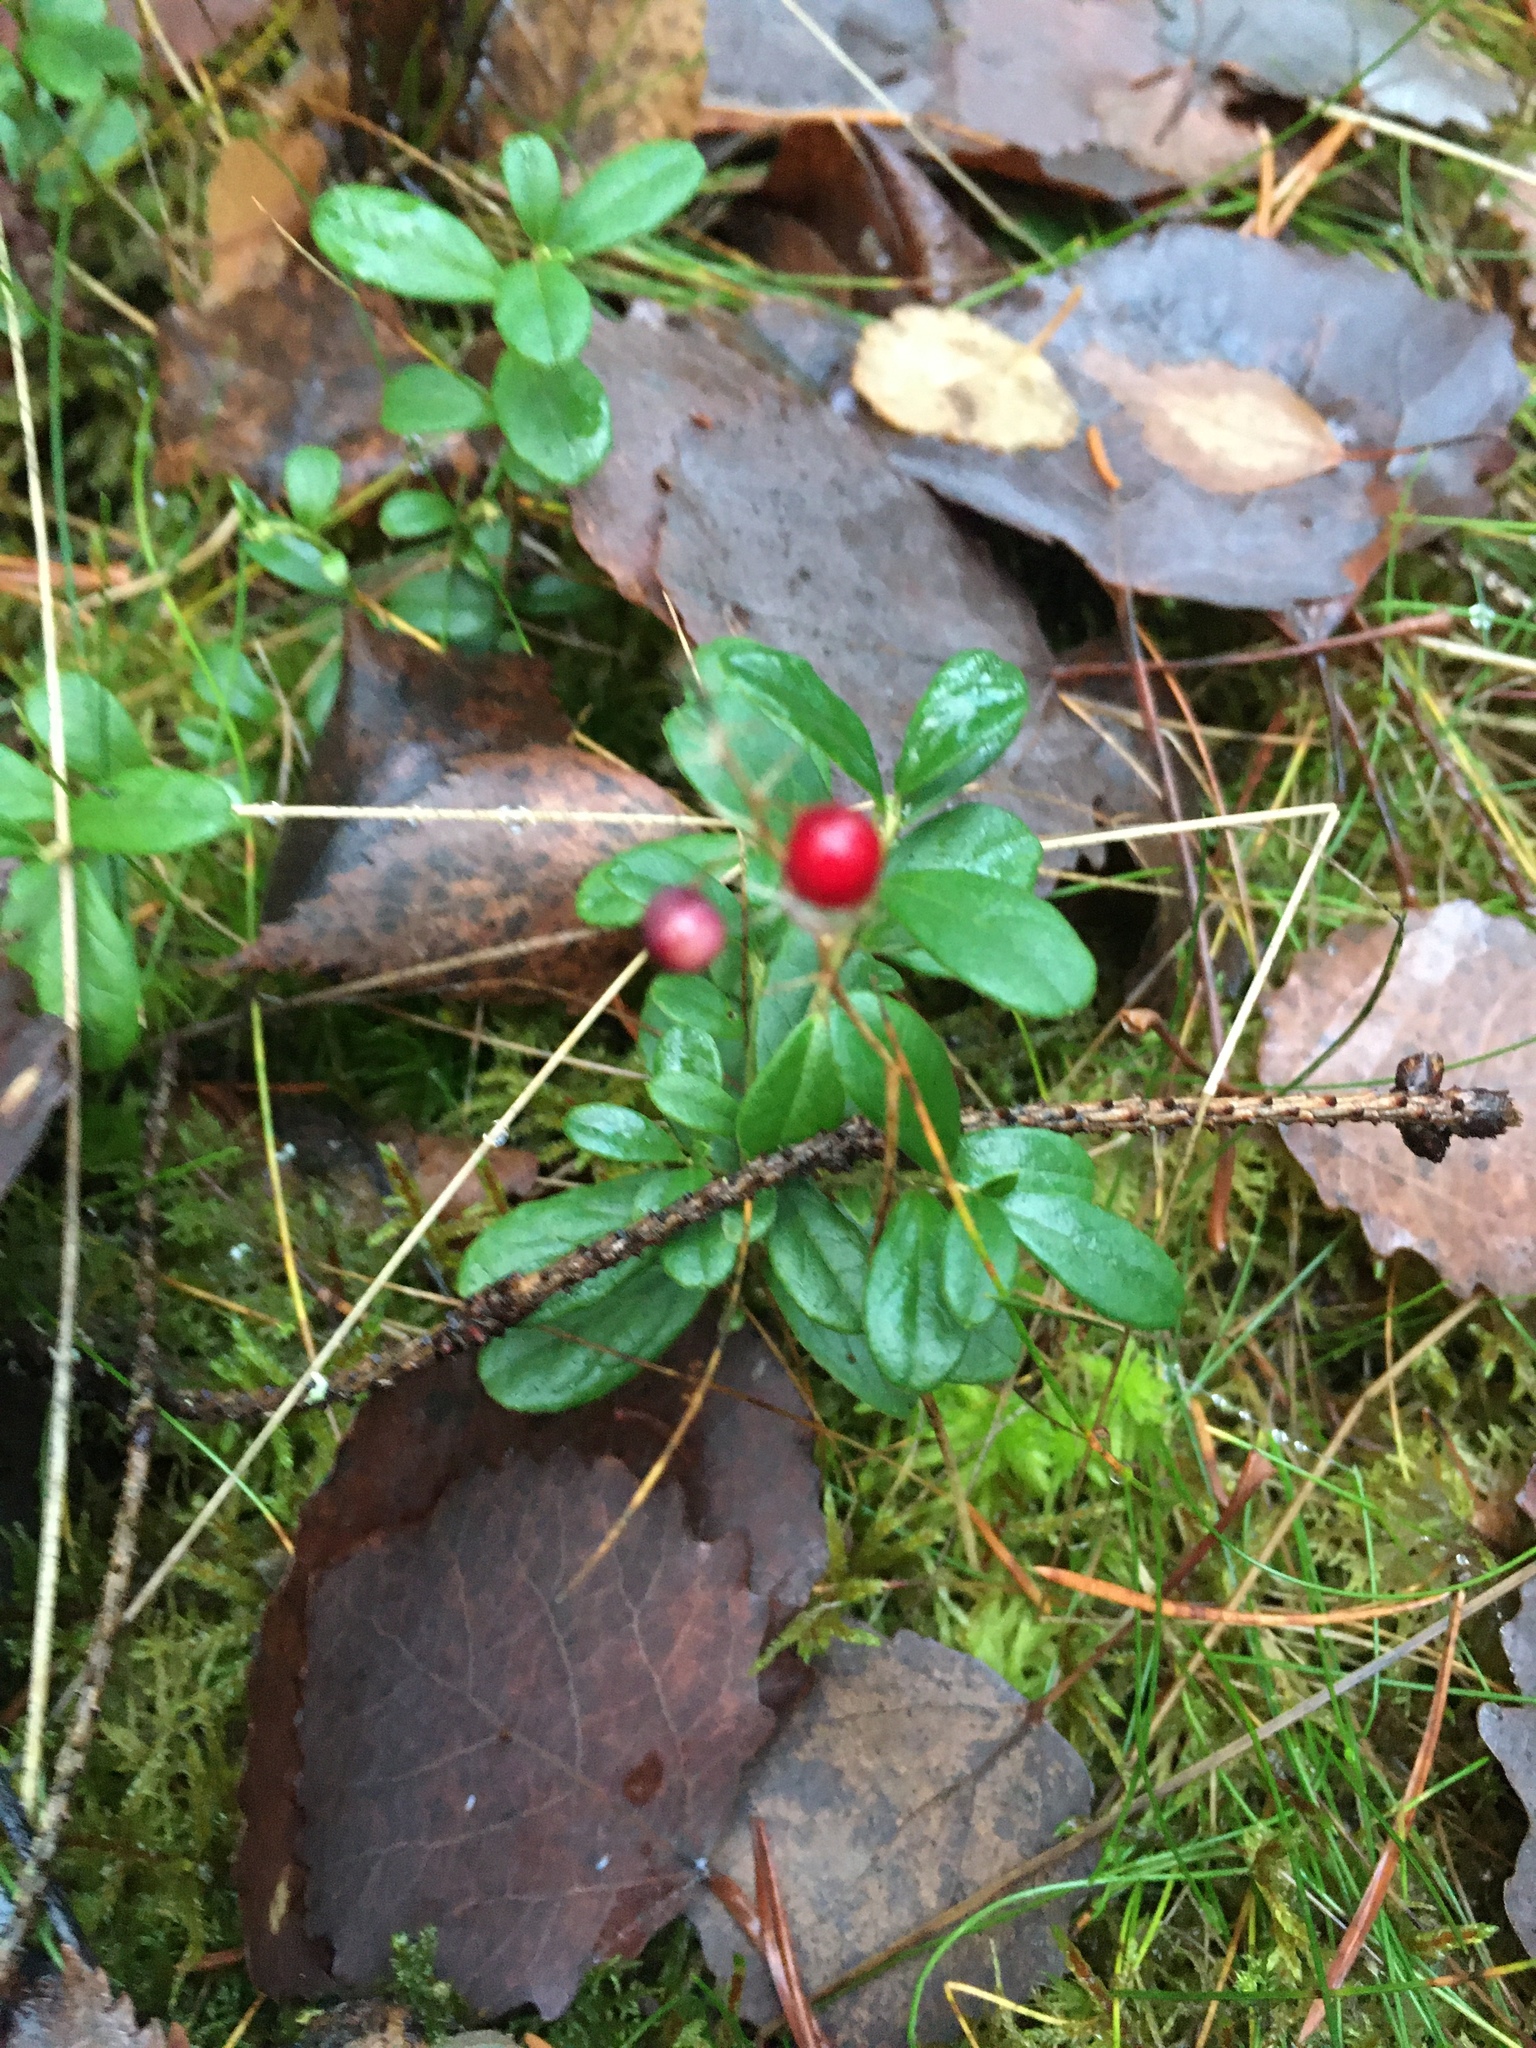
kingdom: Plantae
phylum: Tracheophyta
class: Magnoliopsida
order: Ericales
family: Ericaceae
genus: Vaccinium
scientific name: Vaccinium vitis-idaea
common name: Cowberry
